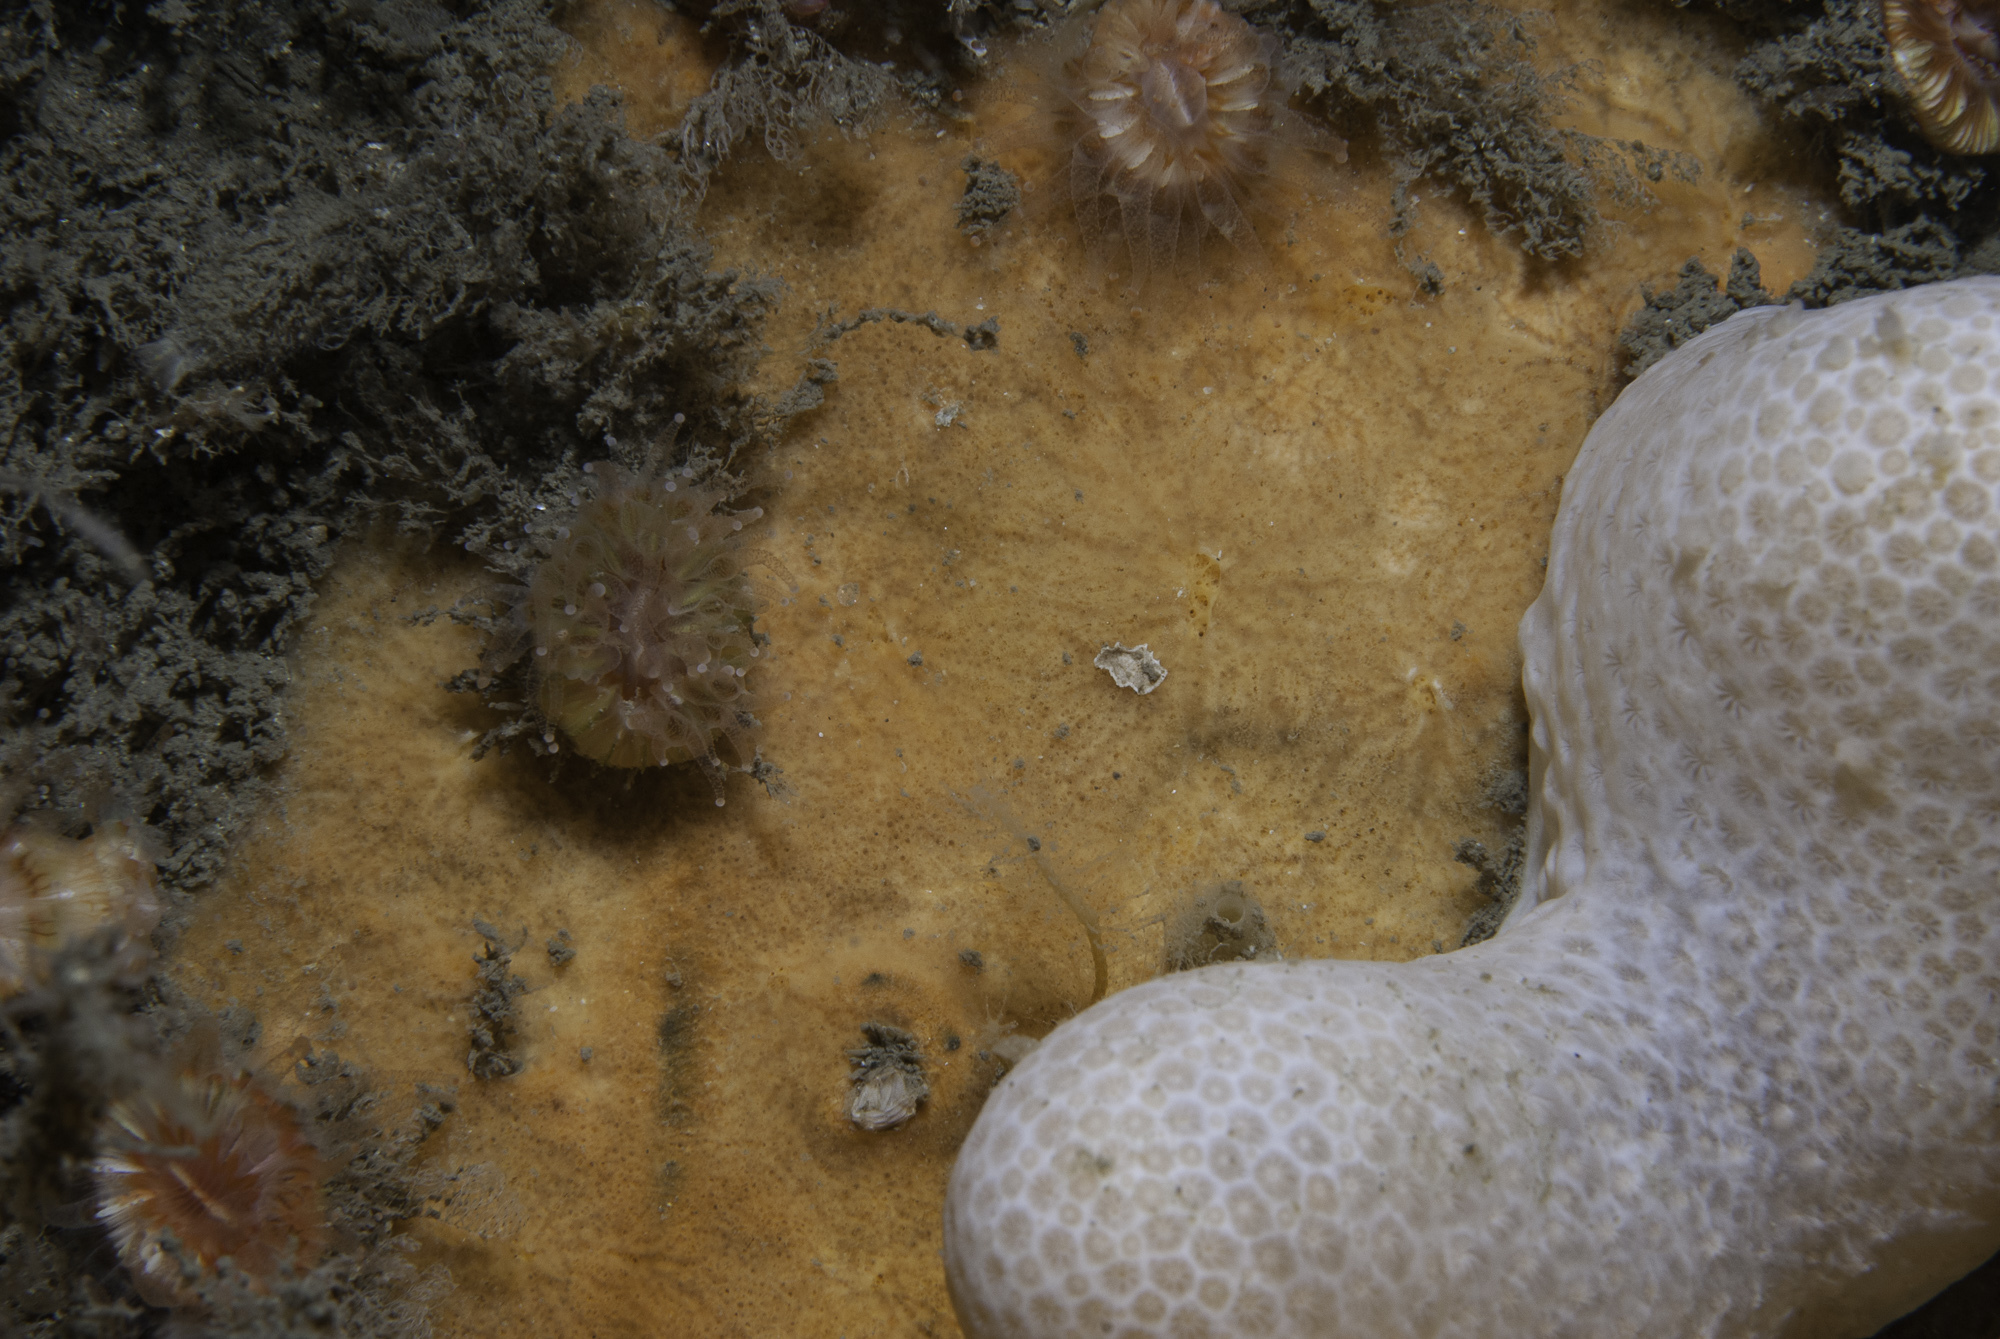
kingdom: Animalia
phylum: Porifera
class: Demospongiae
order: Poecilosclerida
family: Myxillidae
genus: Plocamiancora
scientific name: Plocamiancora arndti
